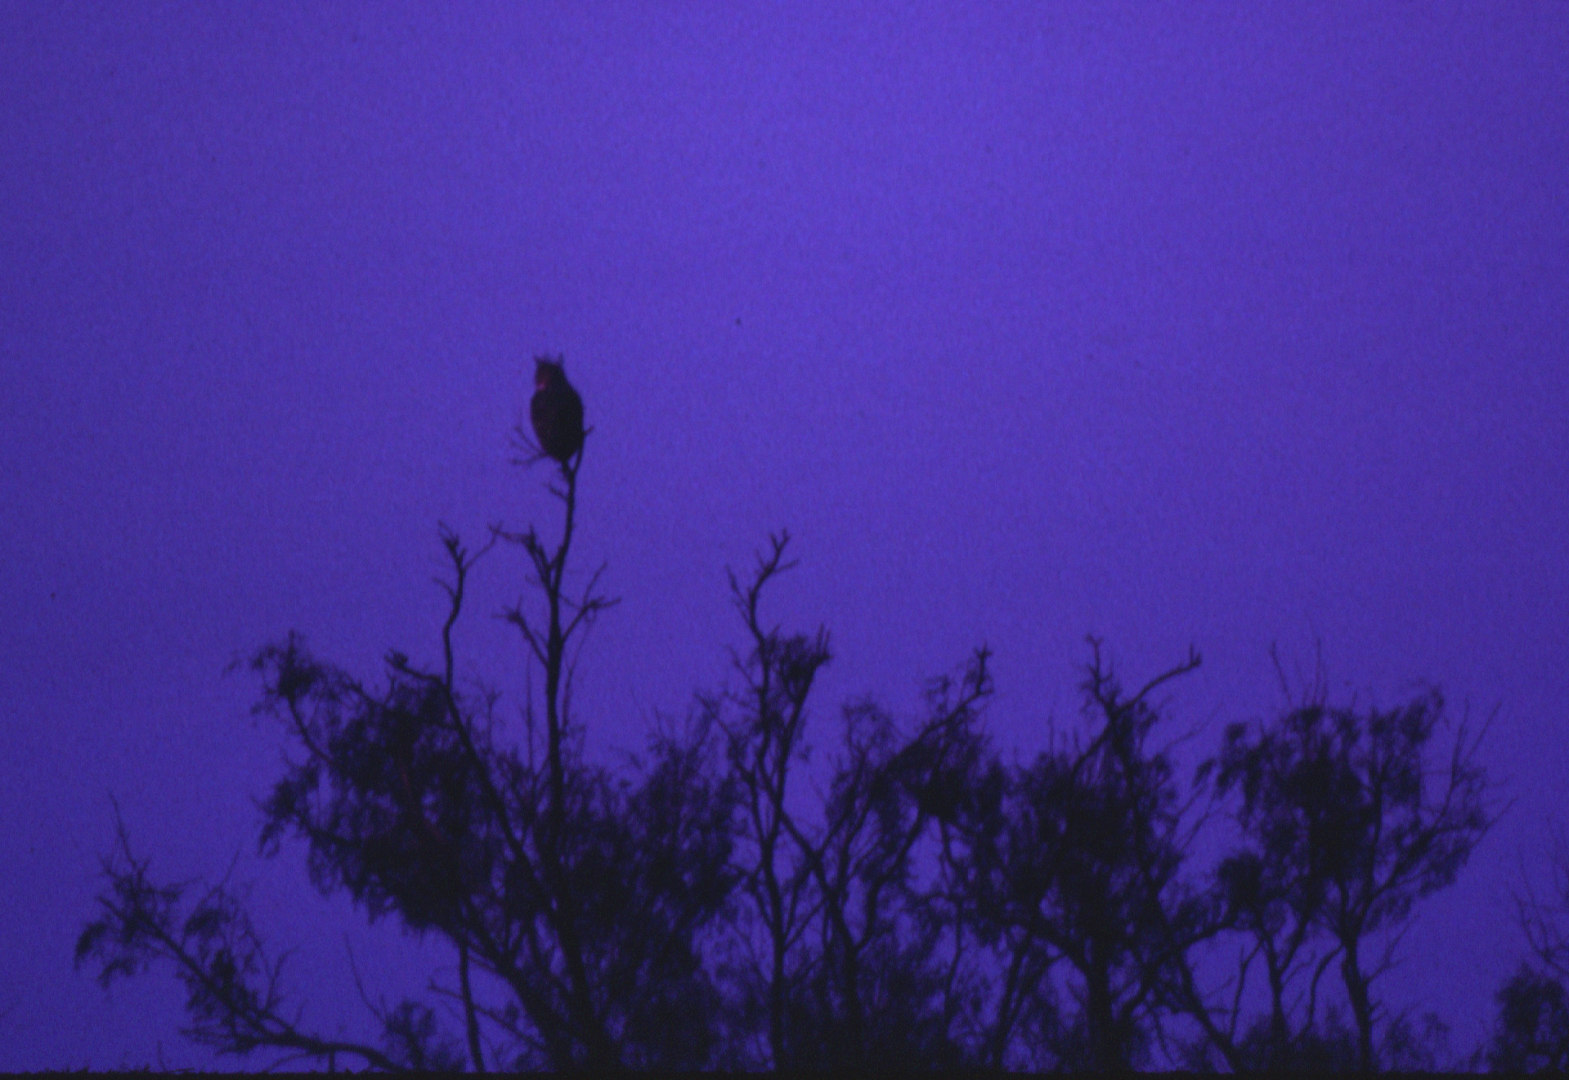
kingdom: Animalia
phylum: Chordata
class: Aves
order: Strigiformes
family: Strigidae
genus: Bubo
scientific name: Bubo virginianus
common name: Great horned owl
